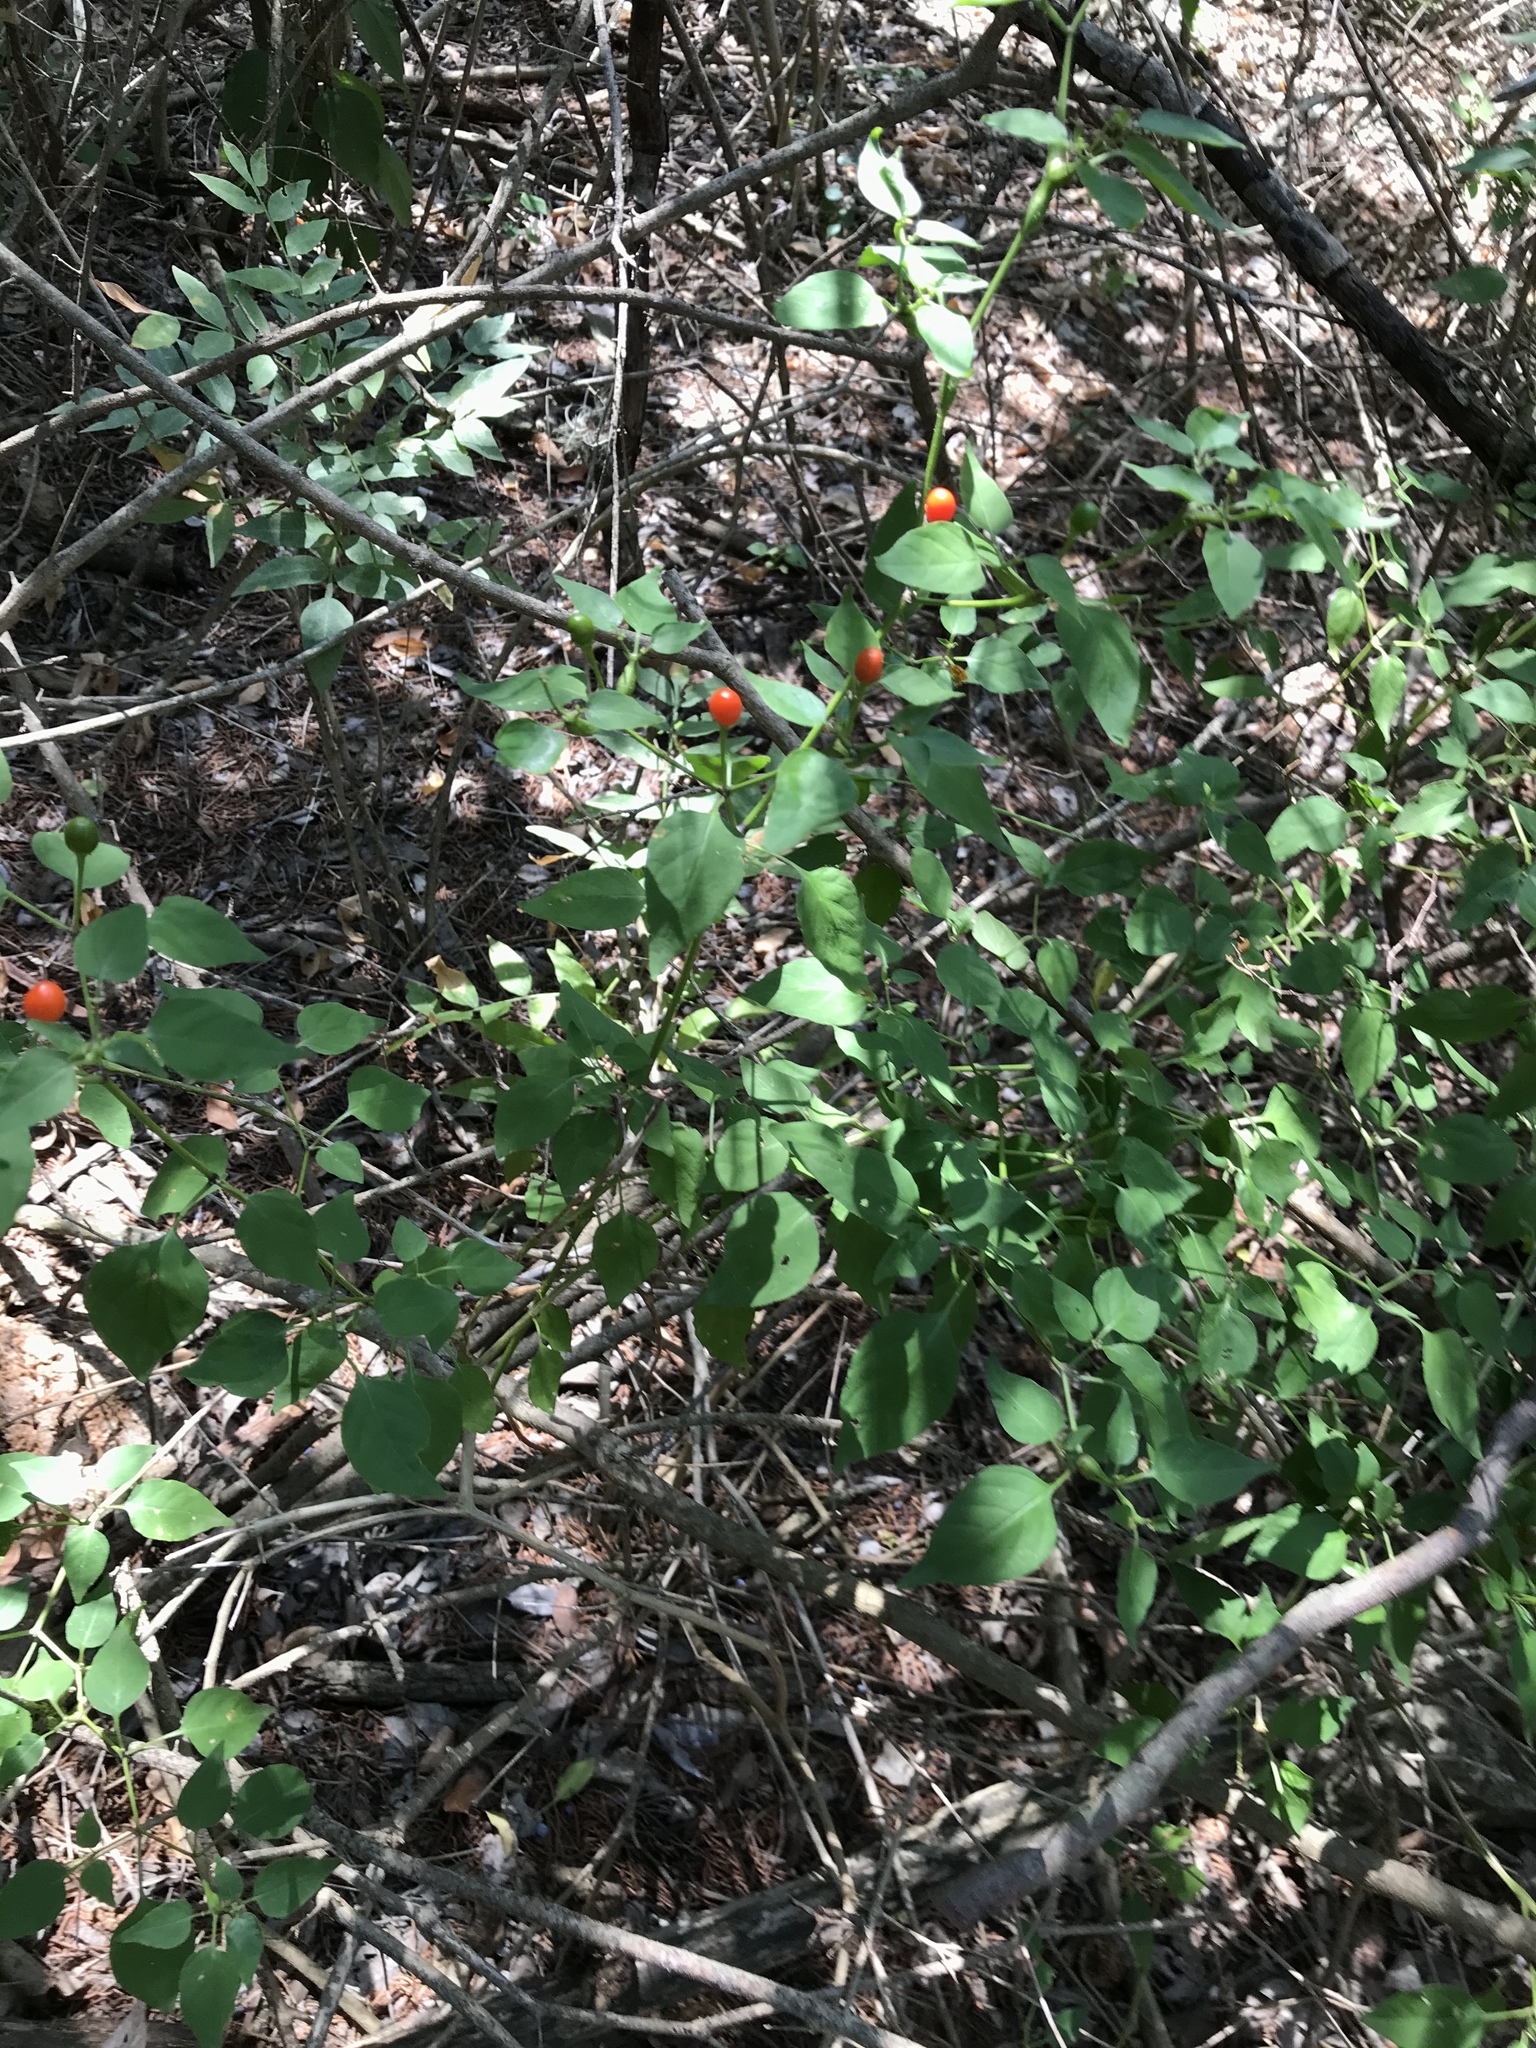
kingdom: Plantae
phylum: Tracheophyta
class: Magnoliopsida
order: Solanales
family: Solanaceae
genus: Capsicum
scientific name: Capsicum annuum
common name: Sweet pepper
